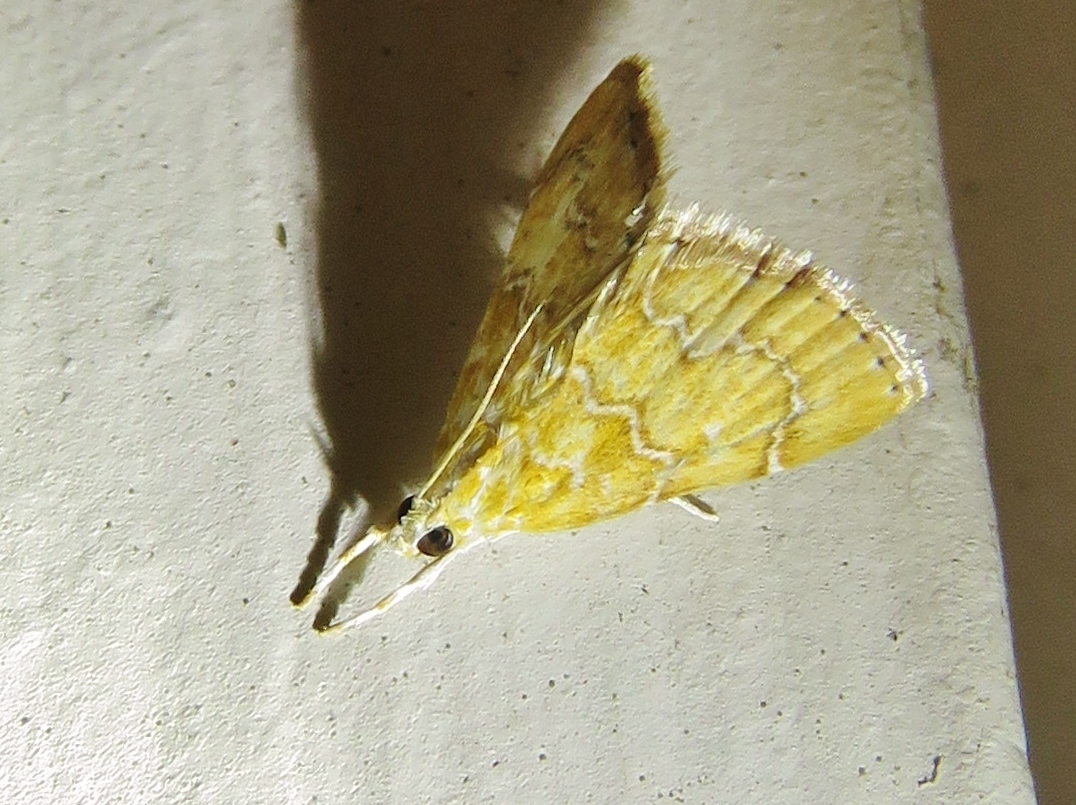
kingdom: Animalia
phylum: Arthropoda
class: Insecta
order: Lepidoptera
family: Crambidae
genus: Glaphyria
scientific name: Glaphyria sesquistrialis
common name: White-roped glaphyria
